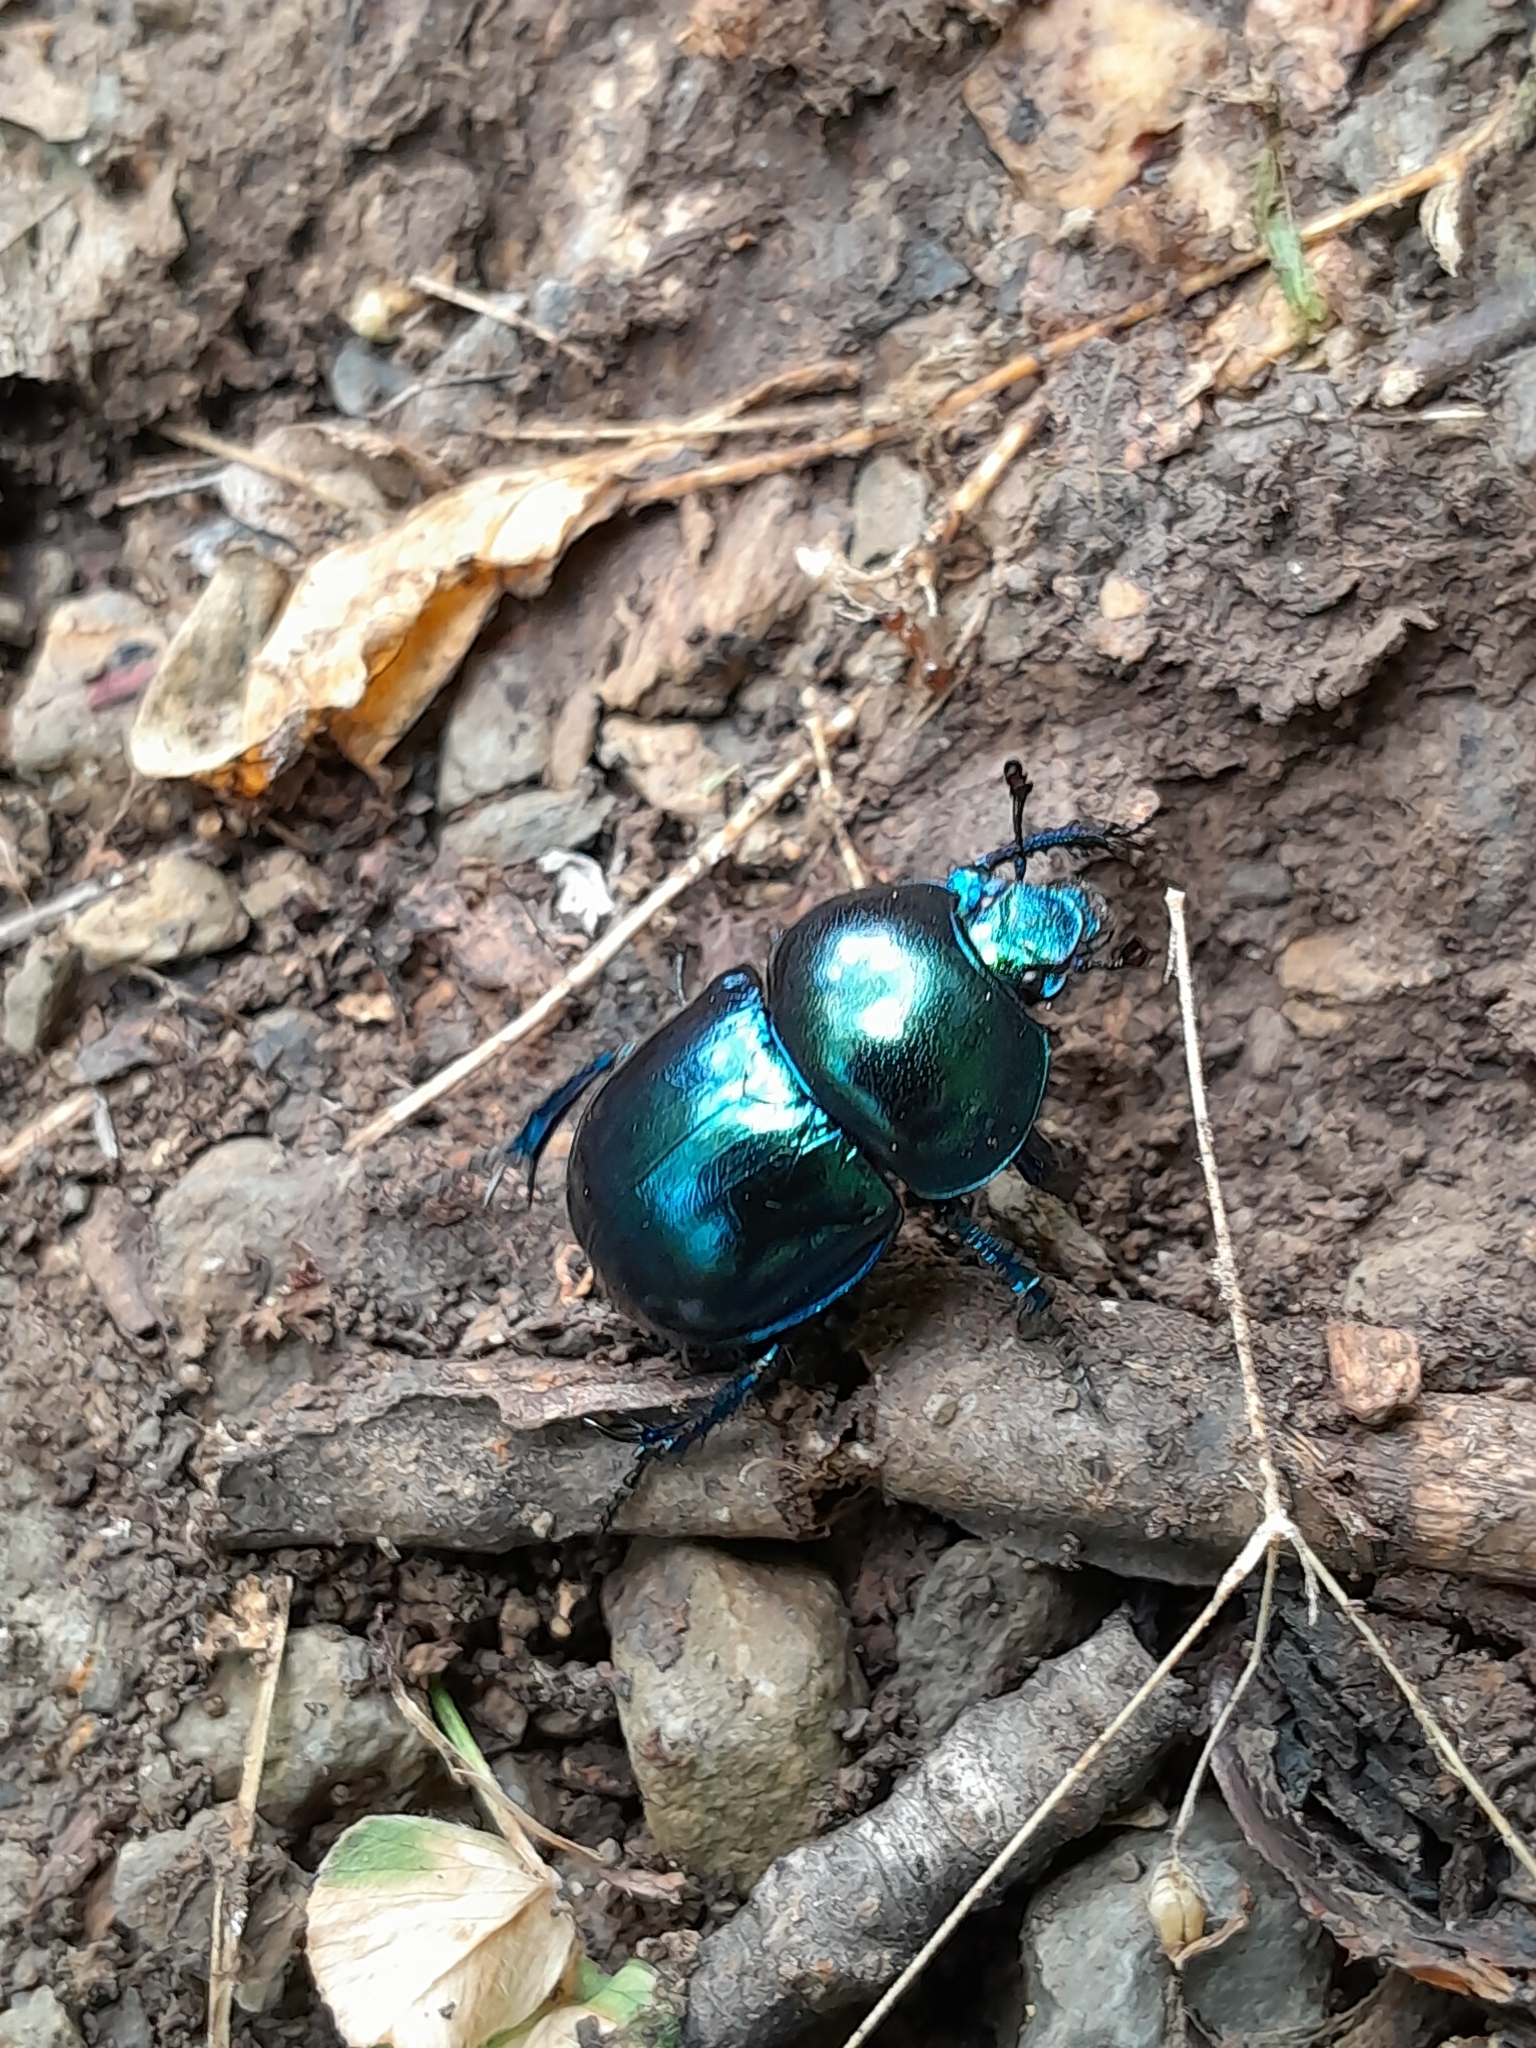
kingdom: Animalia
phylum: Arthropoda
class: Insecta
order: Coleoptera
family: Geotrupidae
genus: Trypocopris
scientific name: Trypocopris vernalis
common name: Spring dumbledor
